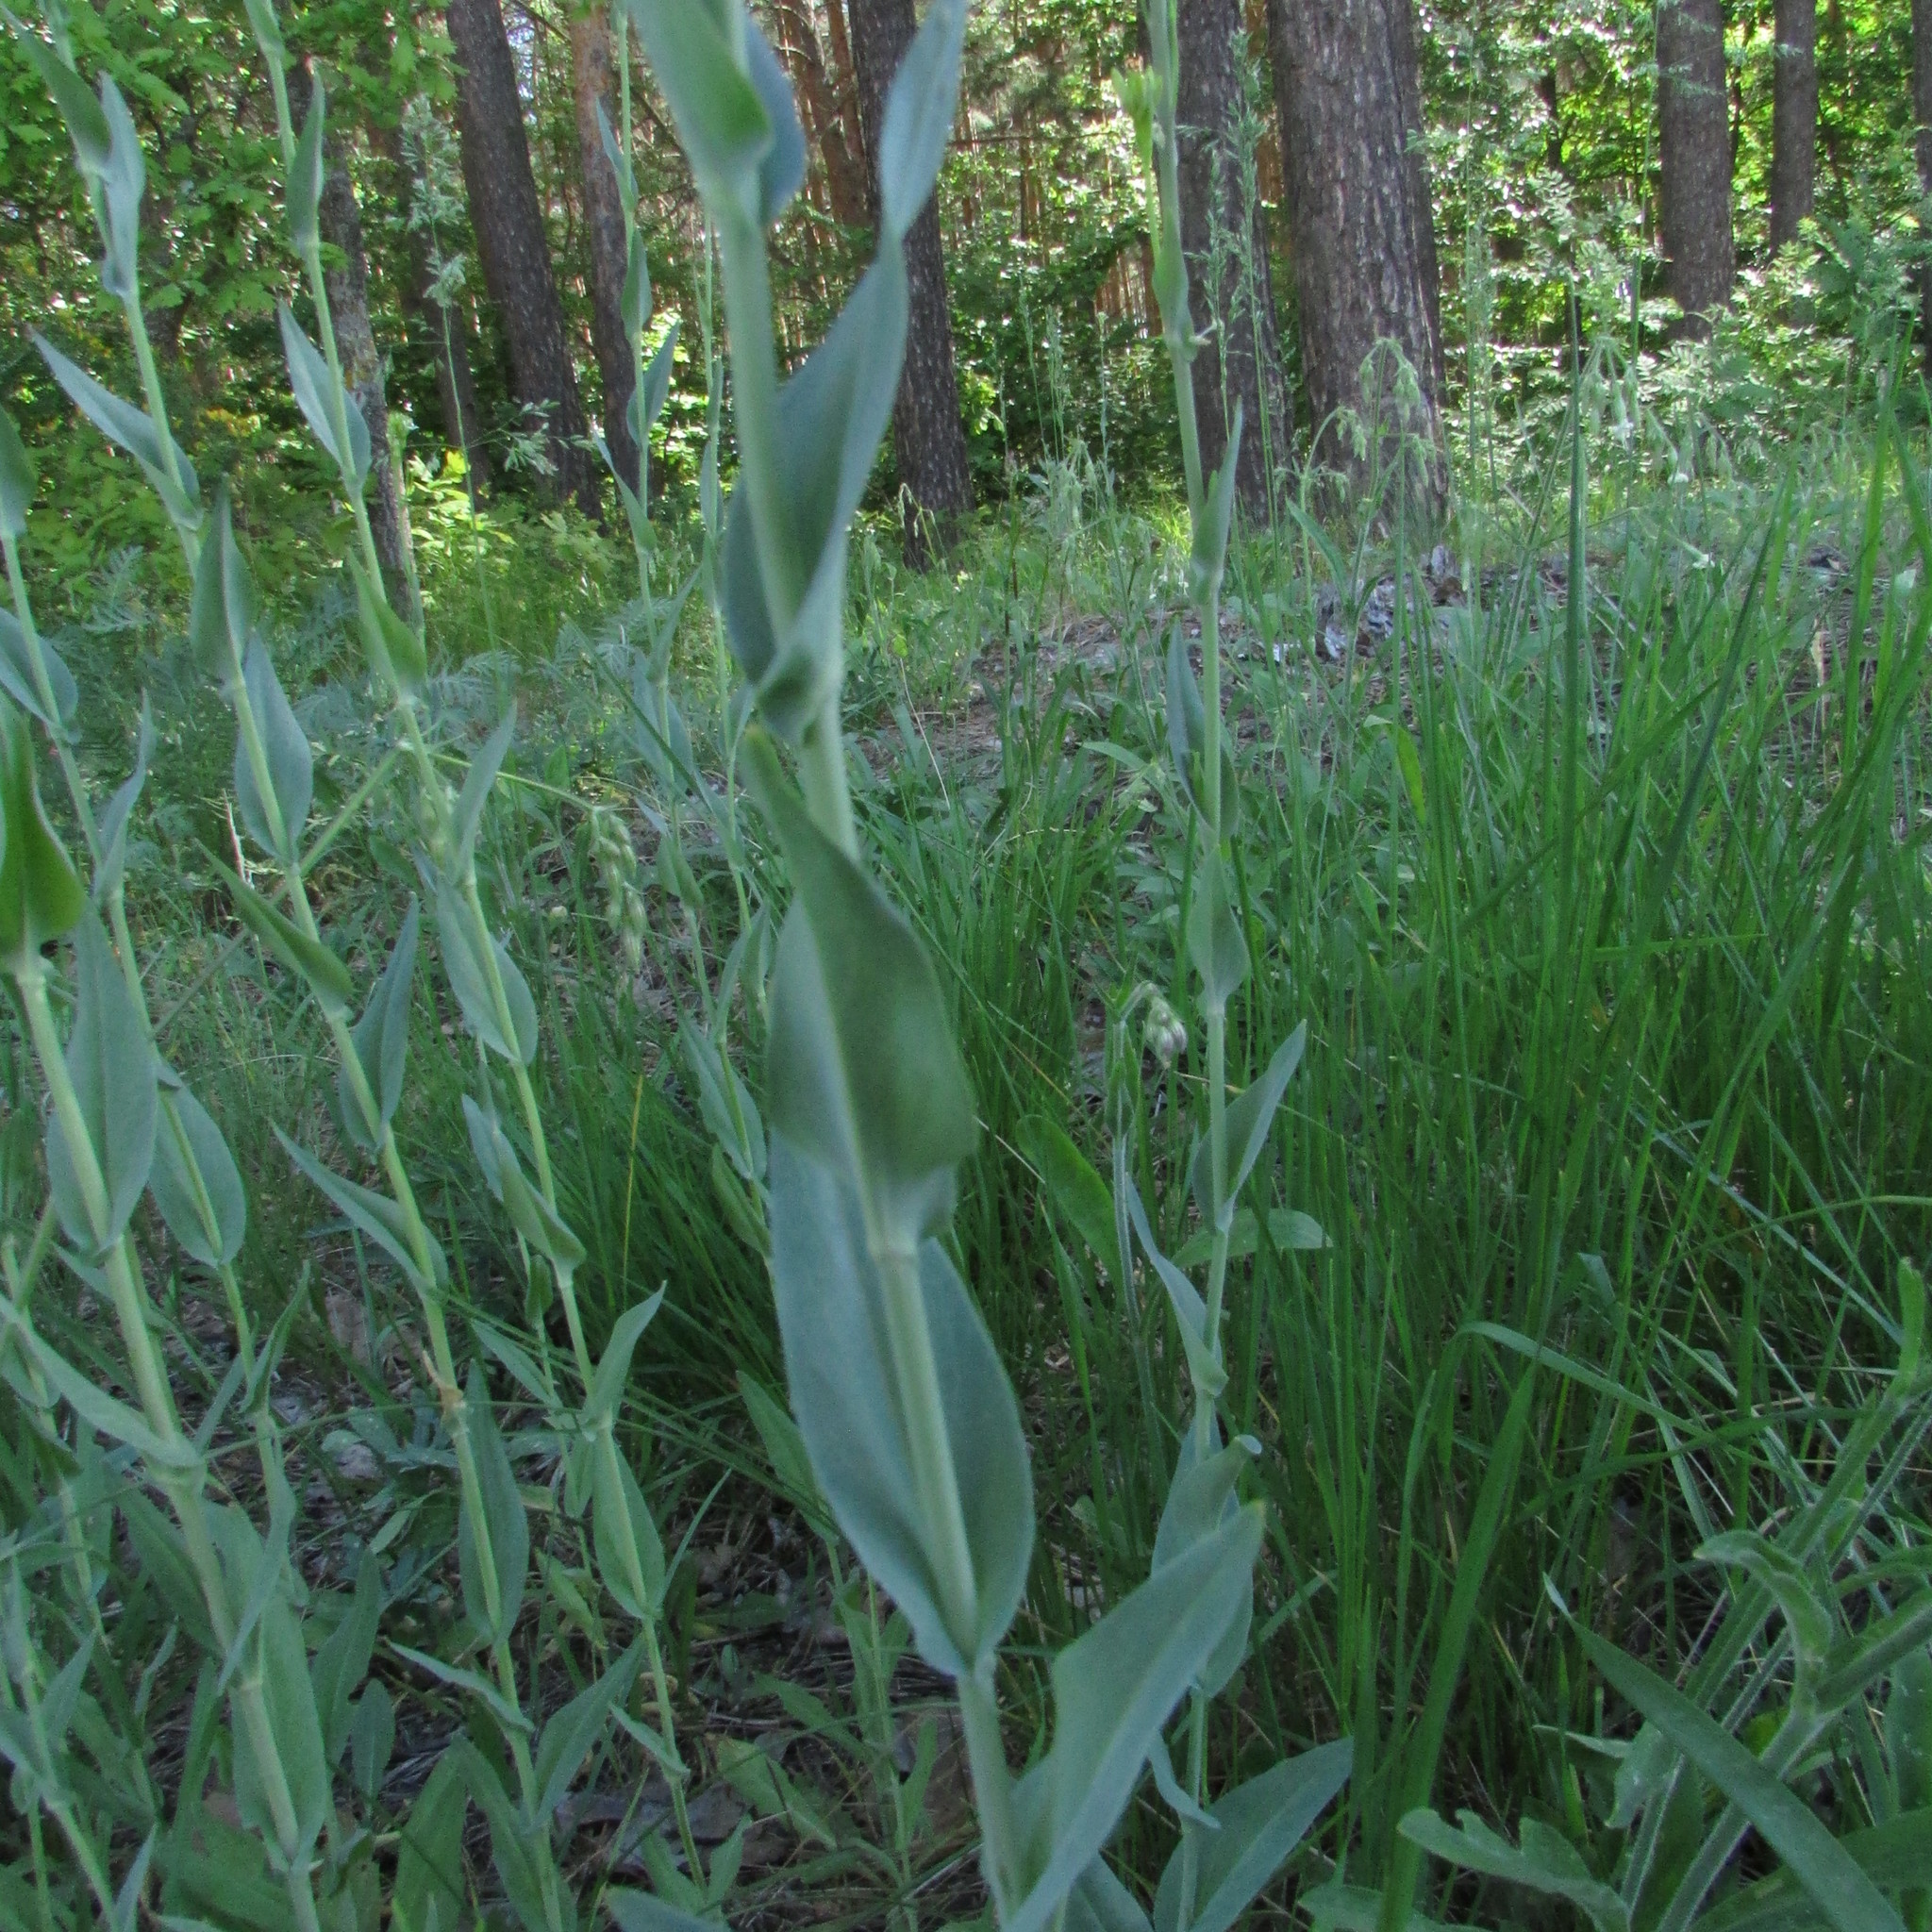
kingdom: Plantae
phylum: Tracheophyta
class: Magnoliopsida
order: Brassicales
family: Brassicaceae
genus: Turritis
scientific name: Turritis glabra
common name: Tower rockcress
